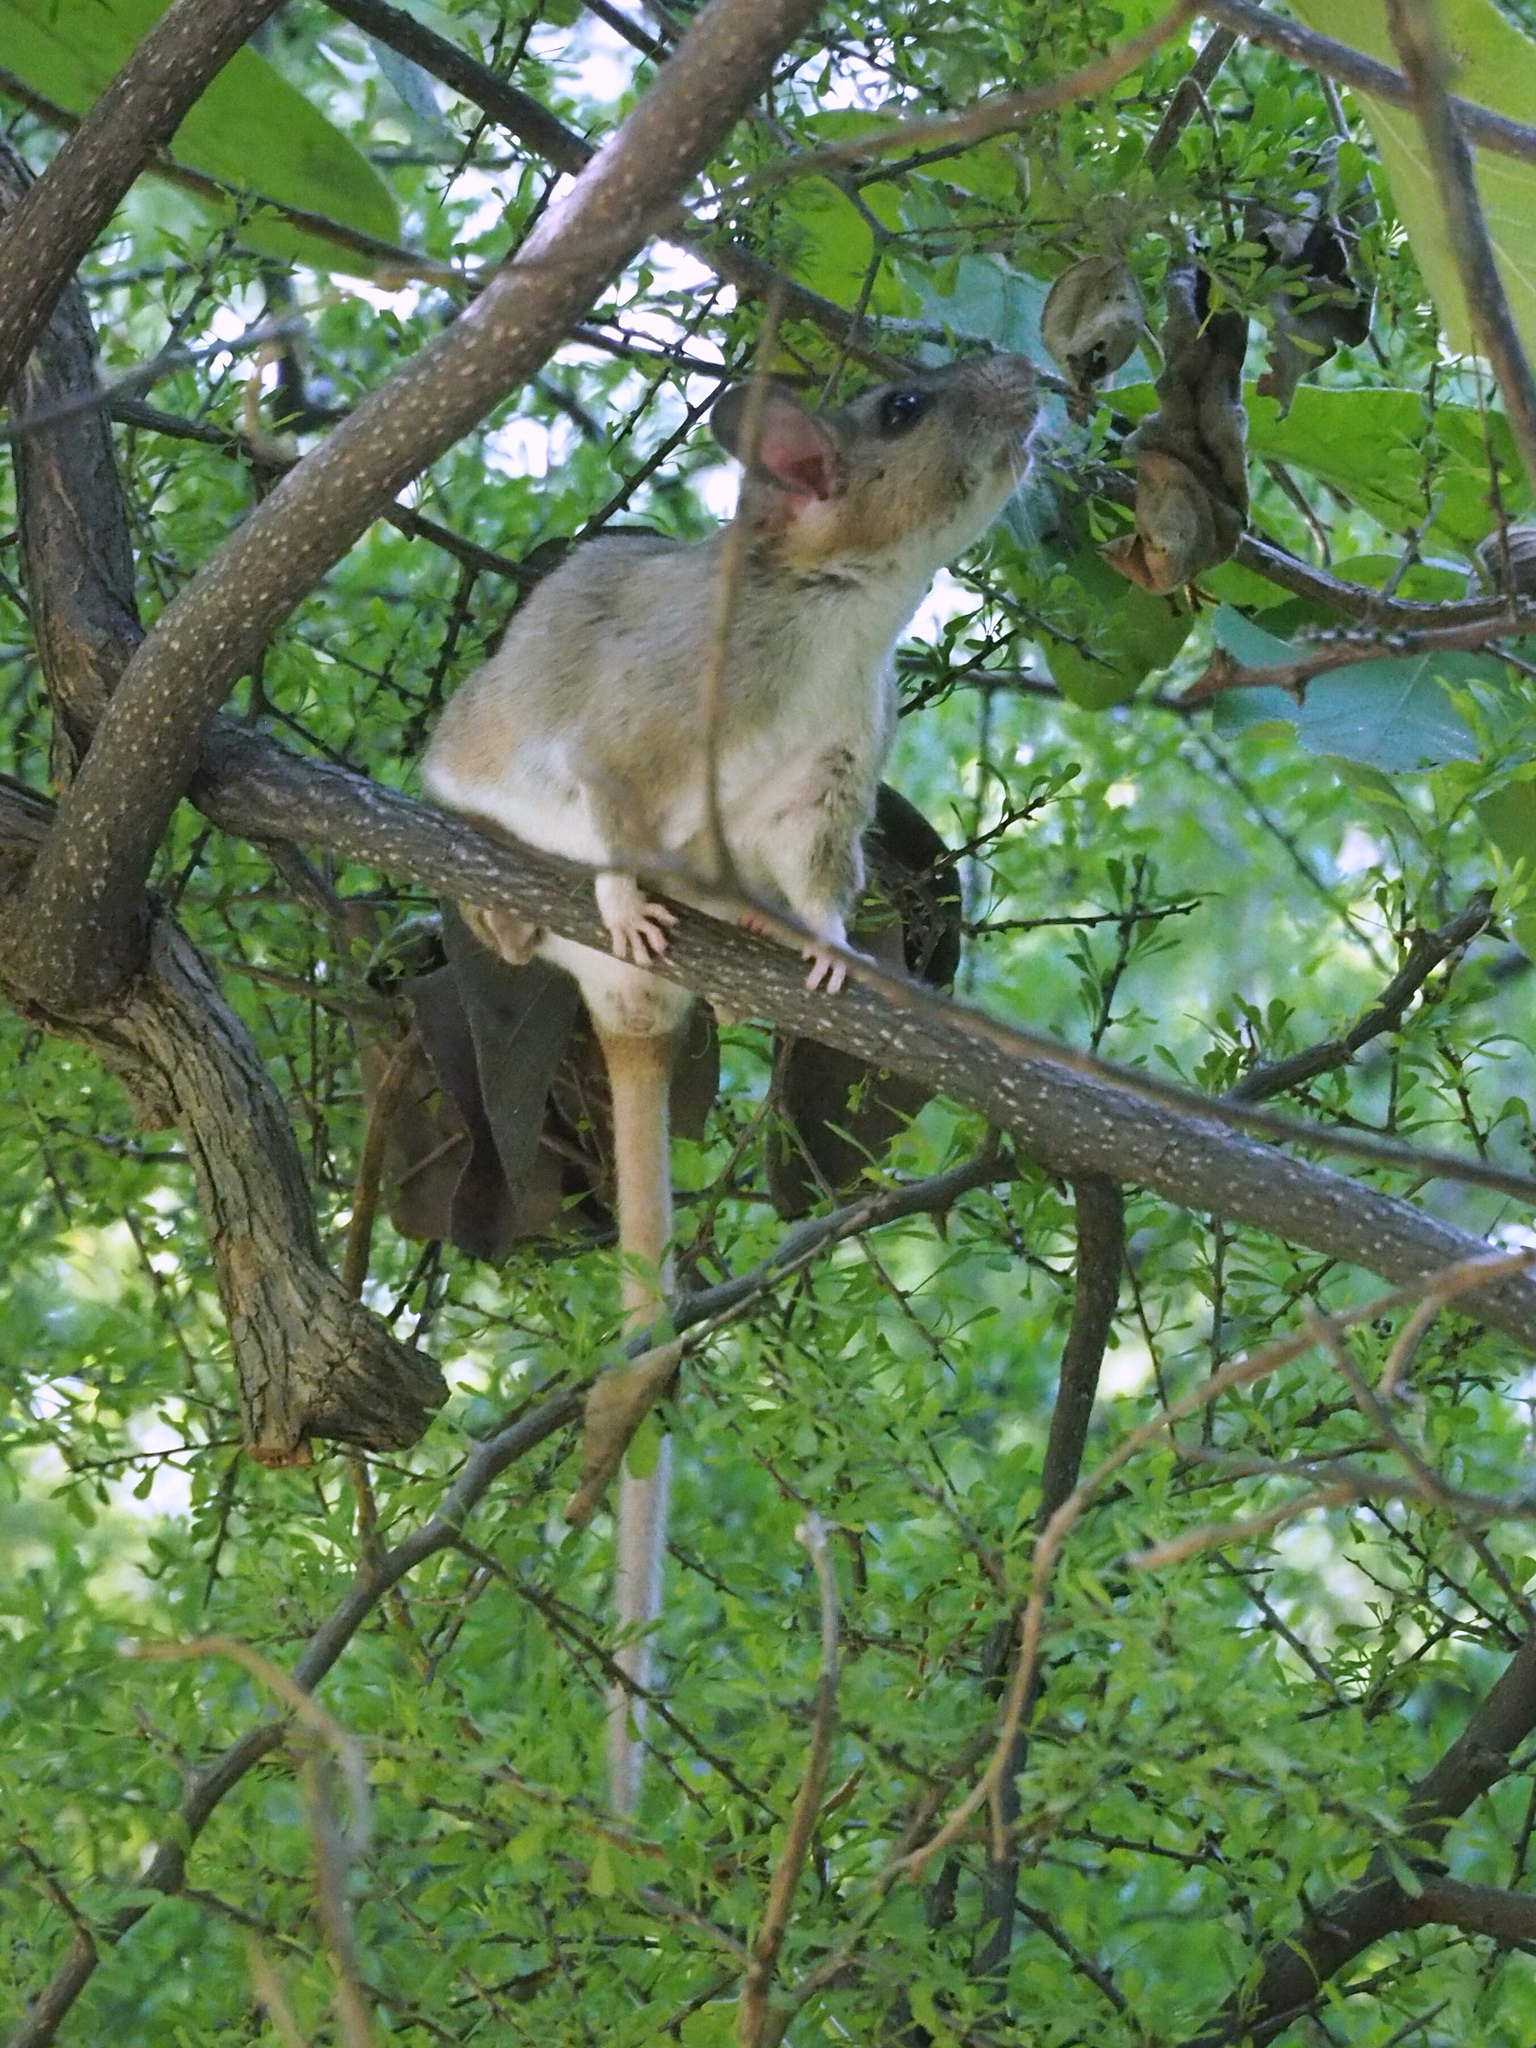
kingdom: Animalia
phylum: Chordata
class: Mammalia
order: Rodentia
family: Cricetidae
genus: Neotoma
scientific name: Neotoma albigula
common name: White-throated woodrat
